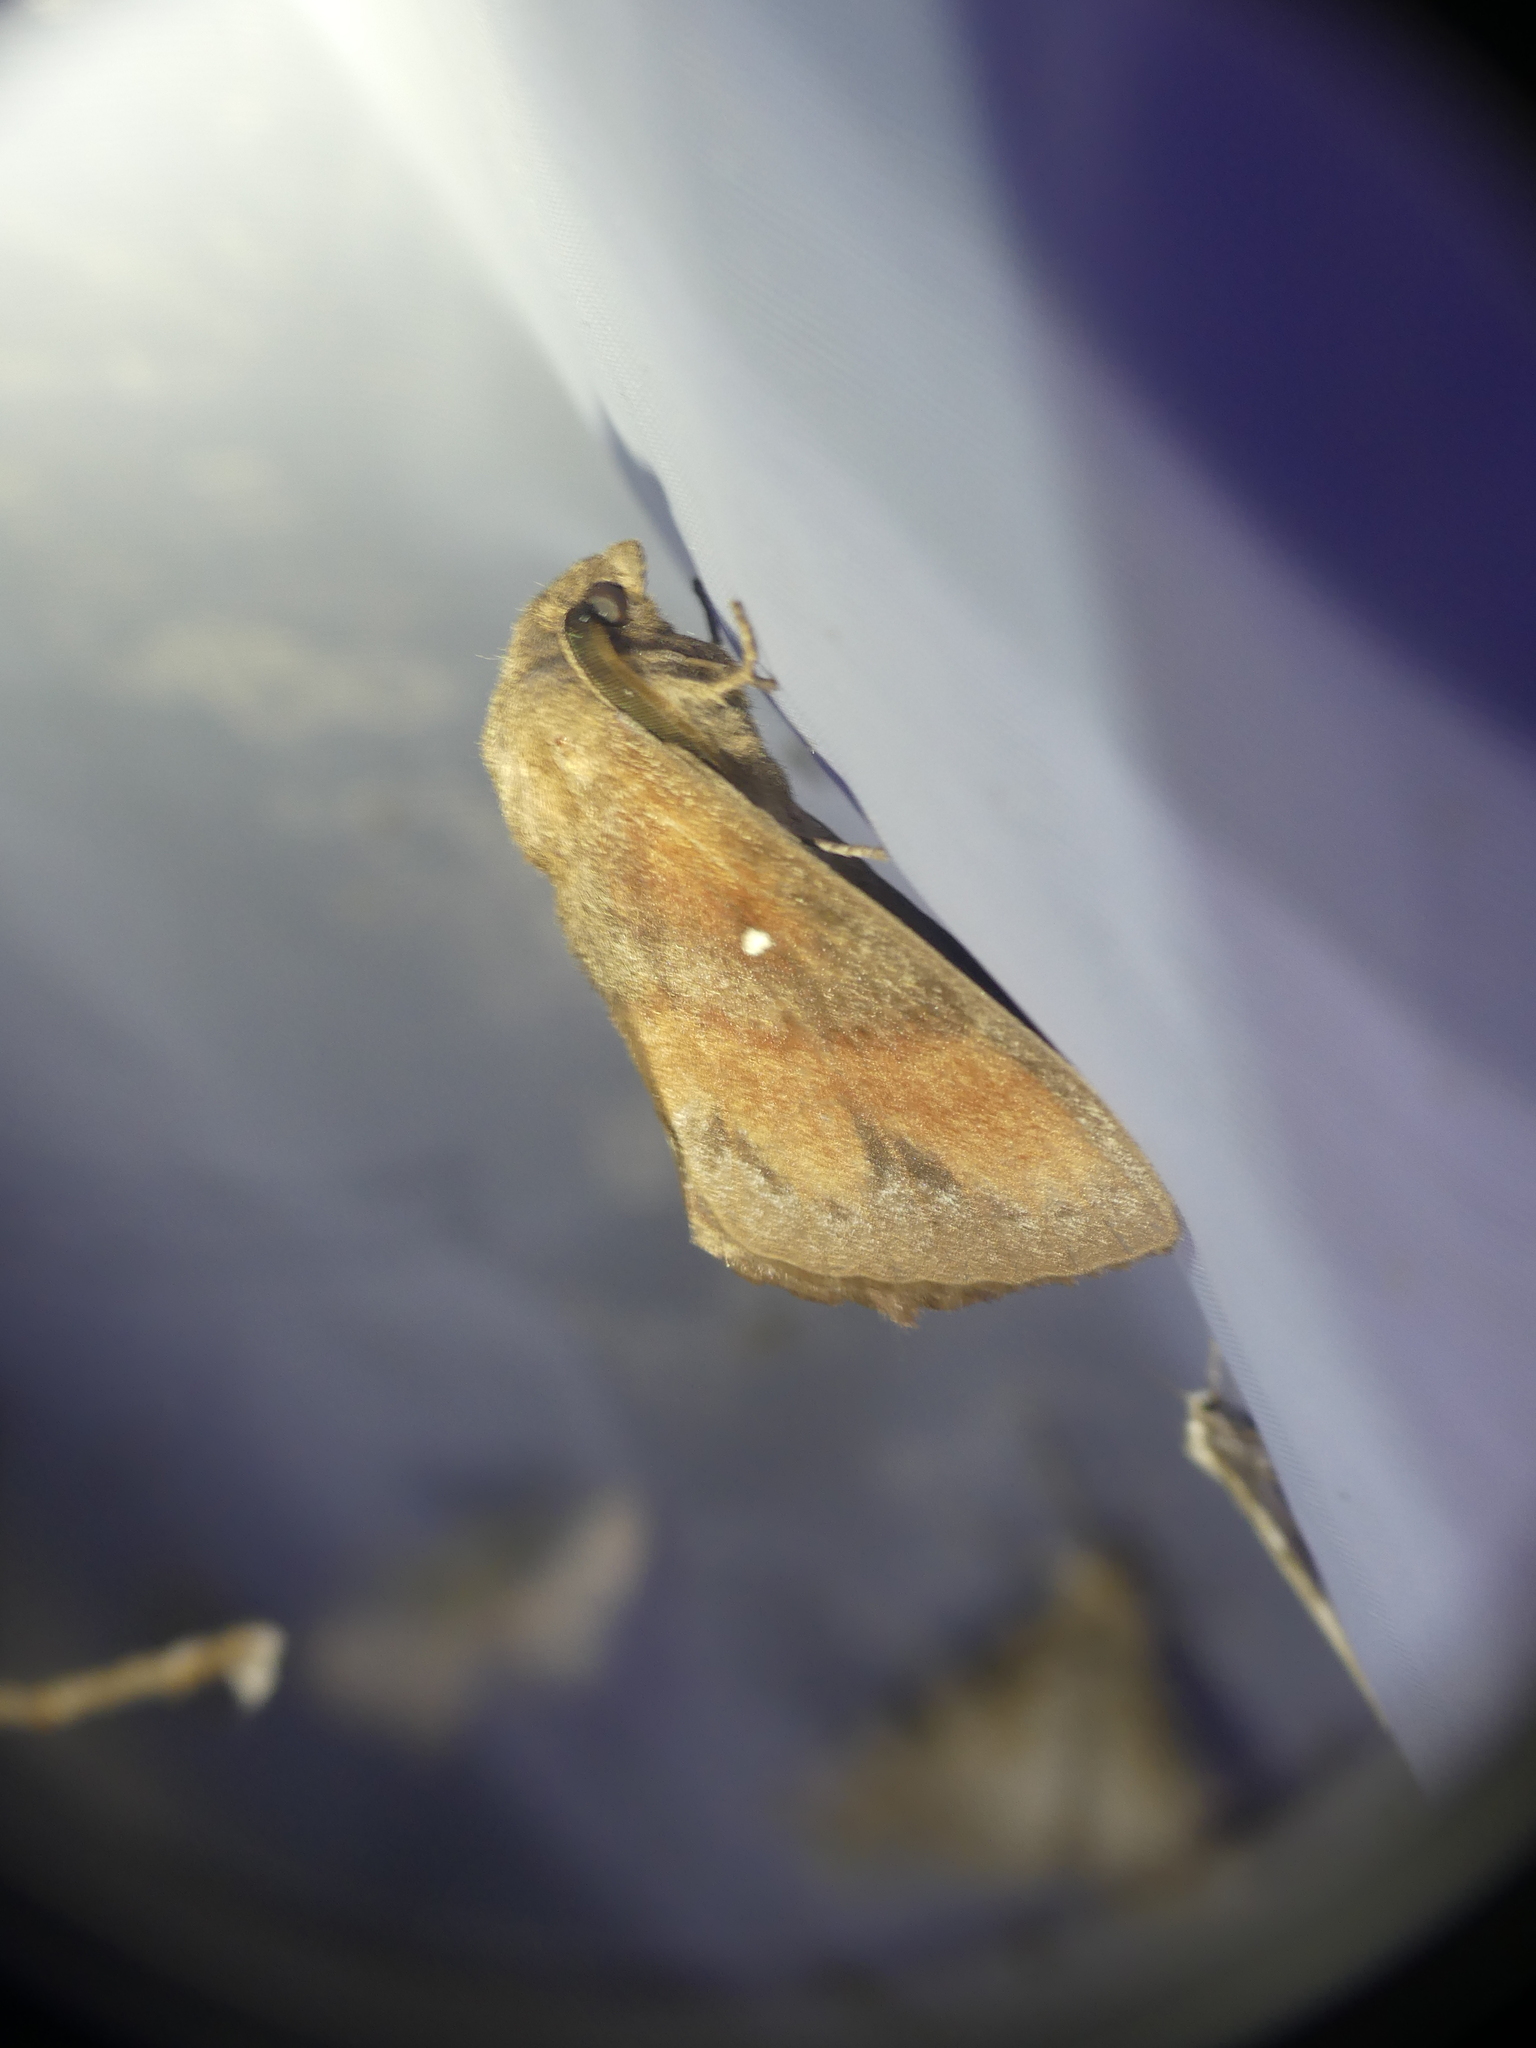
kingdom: Animalia
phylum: Arthropoda
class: Insecta
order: Lepidoptera
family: Lasiocampidae
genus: Dendrolimus
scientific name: Dendrolimus pini
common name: Pine-tree lappet
